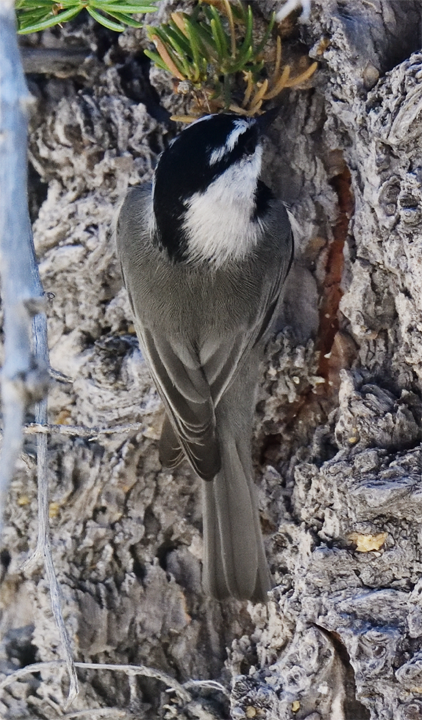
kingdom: Animalia
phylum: Chordata
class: Aves
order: Passeriformes
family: Paridae
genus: Poecile
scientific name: Poecile gambeli
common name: Mountain chickadee
